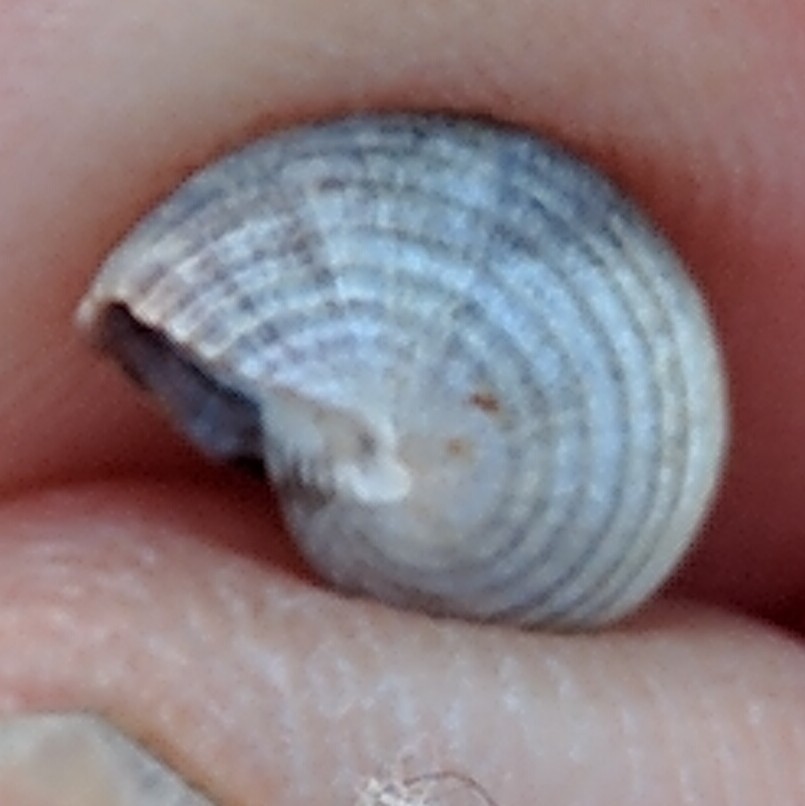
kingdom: Animalia
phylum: Mollusca
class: Gastropoda
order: Littorinimorpha
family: Littorinidae
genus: Littorina
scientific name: Littorina littorea
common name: Common periwinkle
